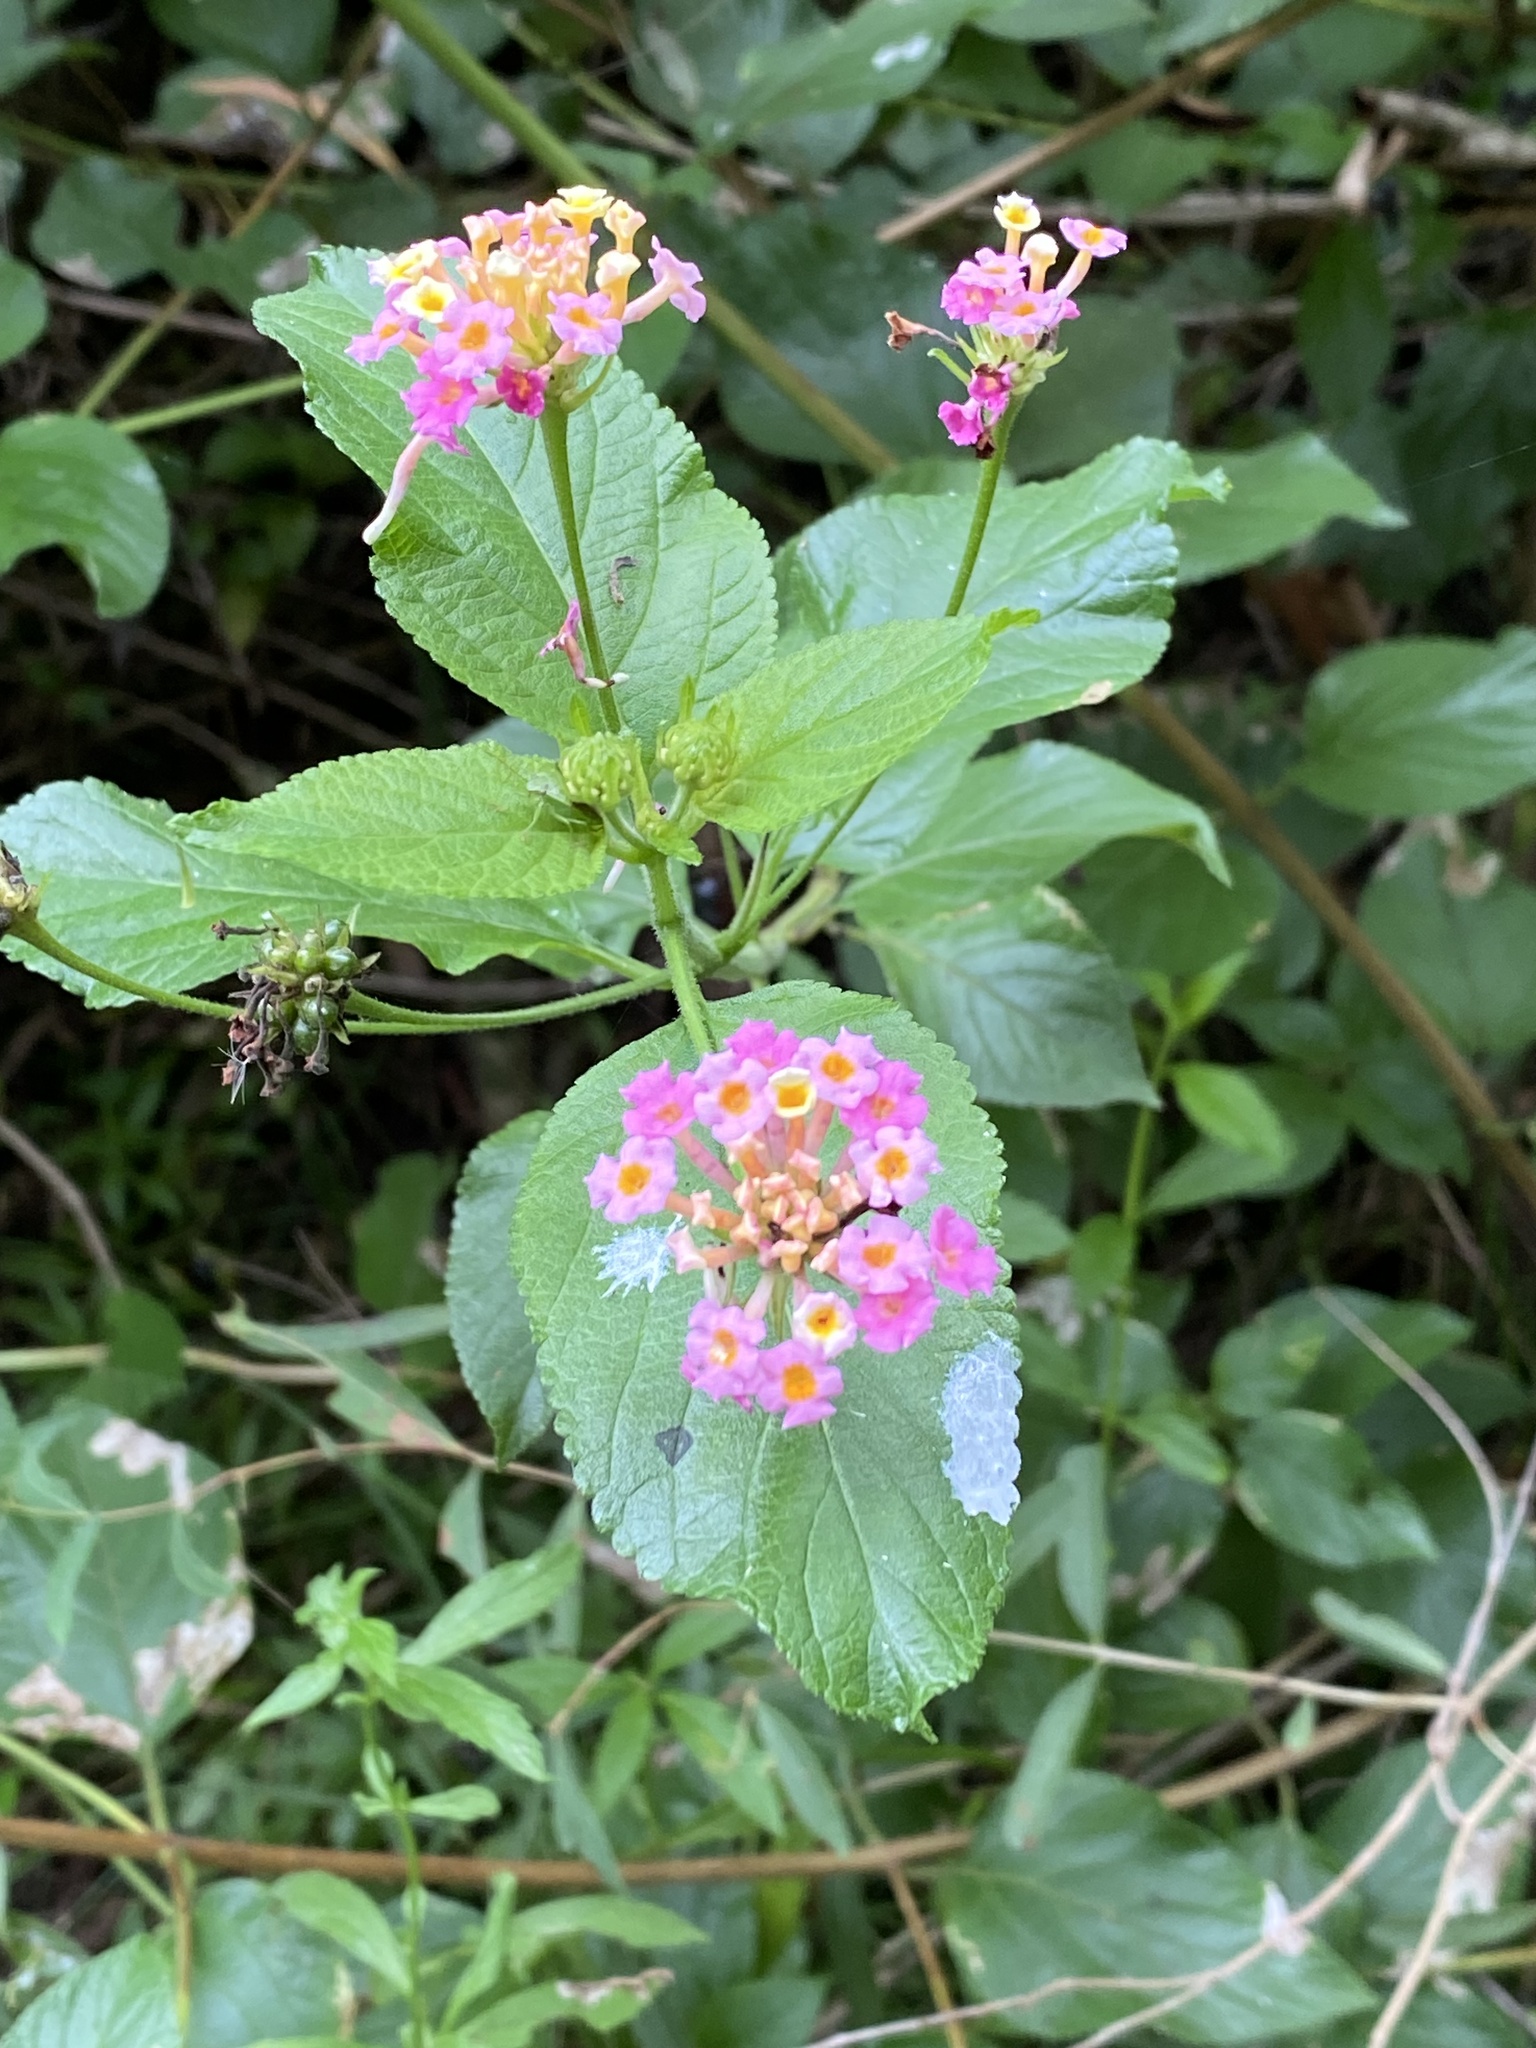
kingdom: Plantae
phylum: Tracheophyta
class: Magnoliopsida
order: Lamiales
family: Verbenaceae
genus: Lantana
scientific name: Lantana camara
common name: Lantana
